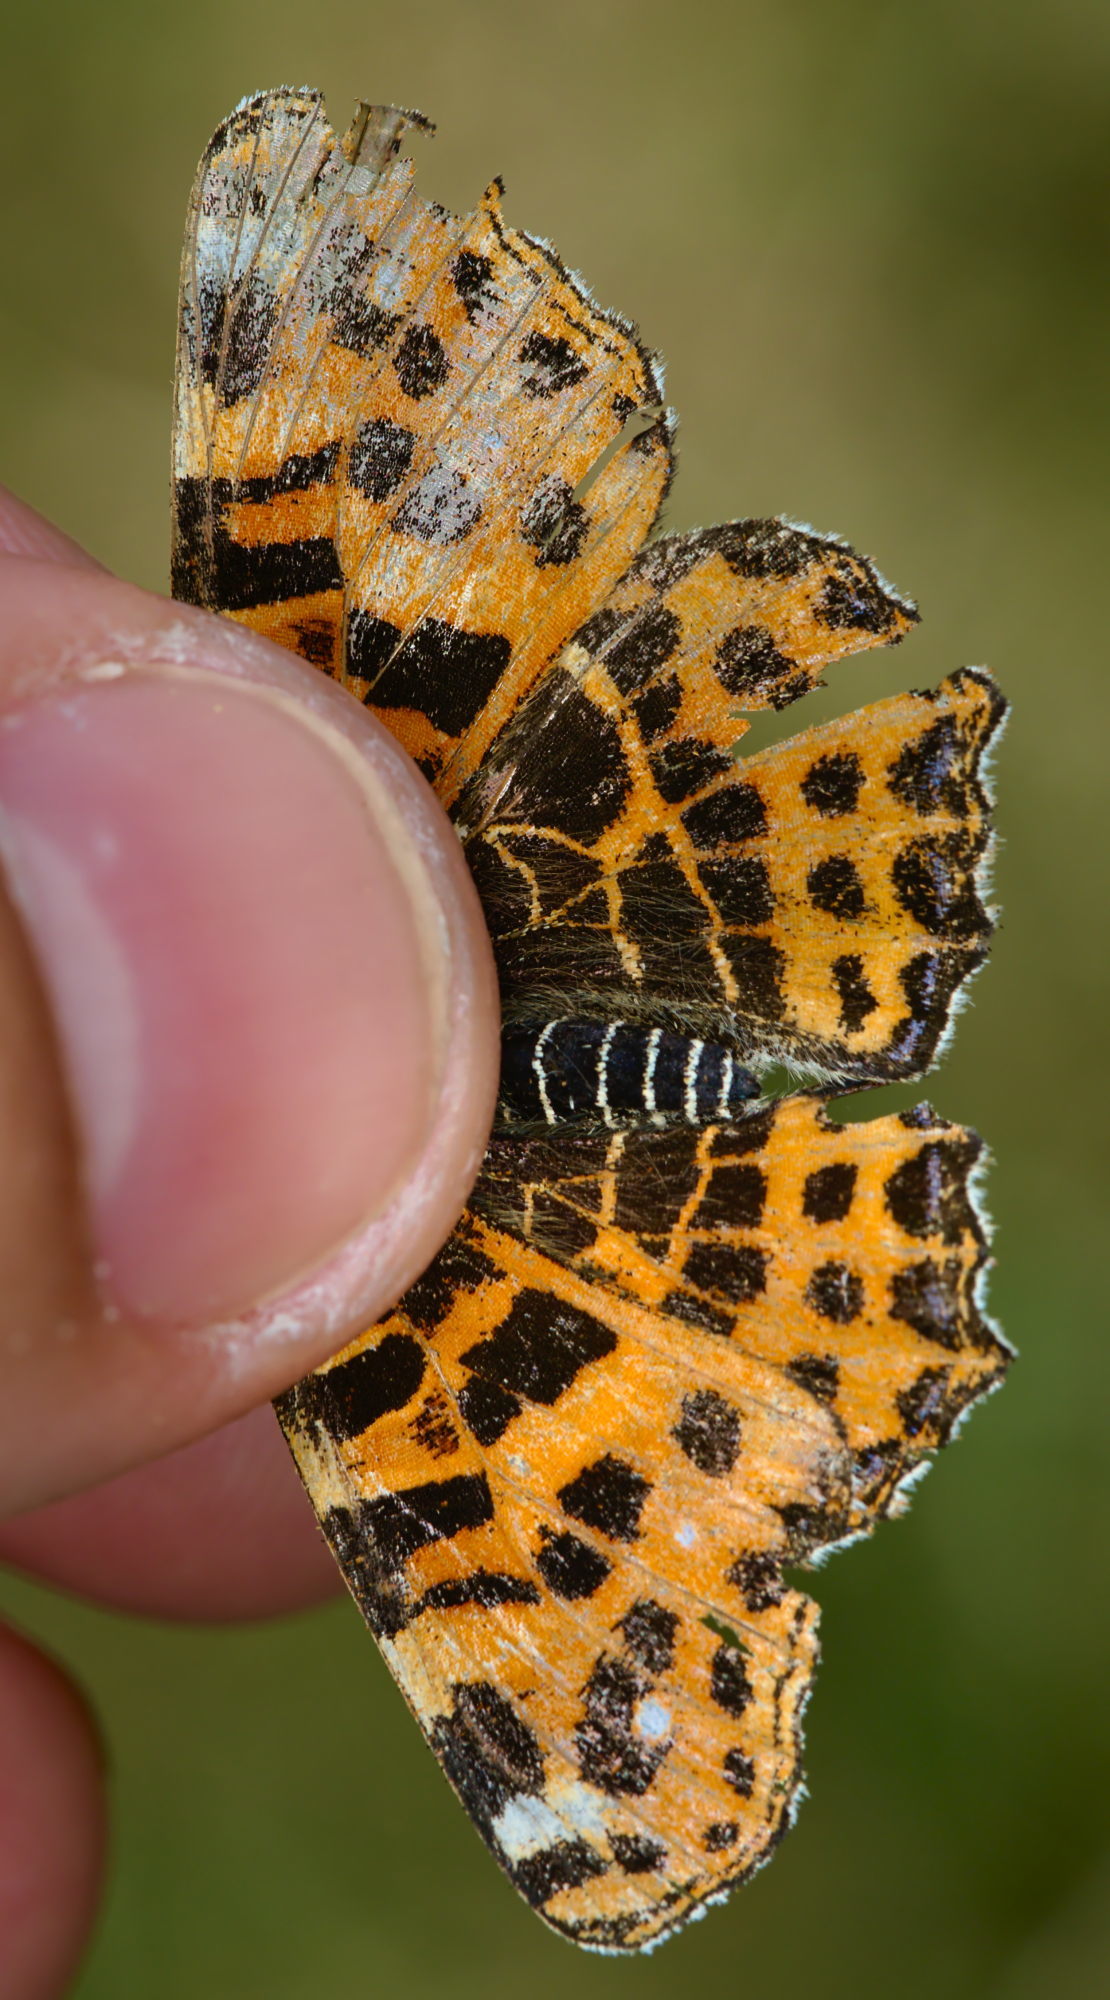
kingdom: Animalia
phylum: Arthropoda
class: Insecta
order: Lepidoptera
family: Nymphalidae
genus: Araschnia
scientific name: Araschnia levana
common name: Map butterfly
